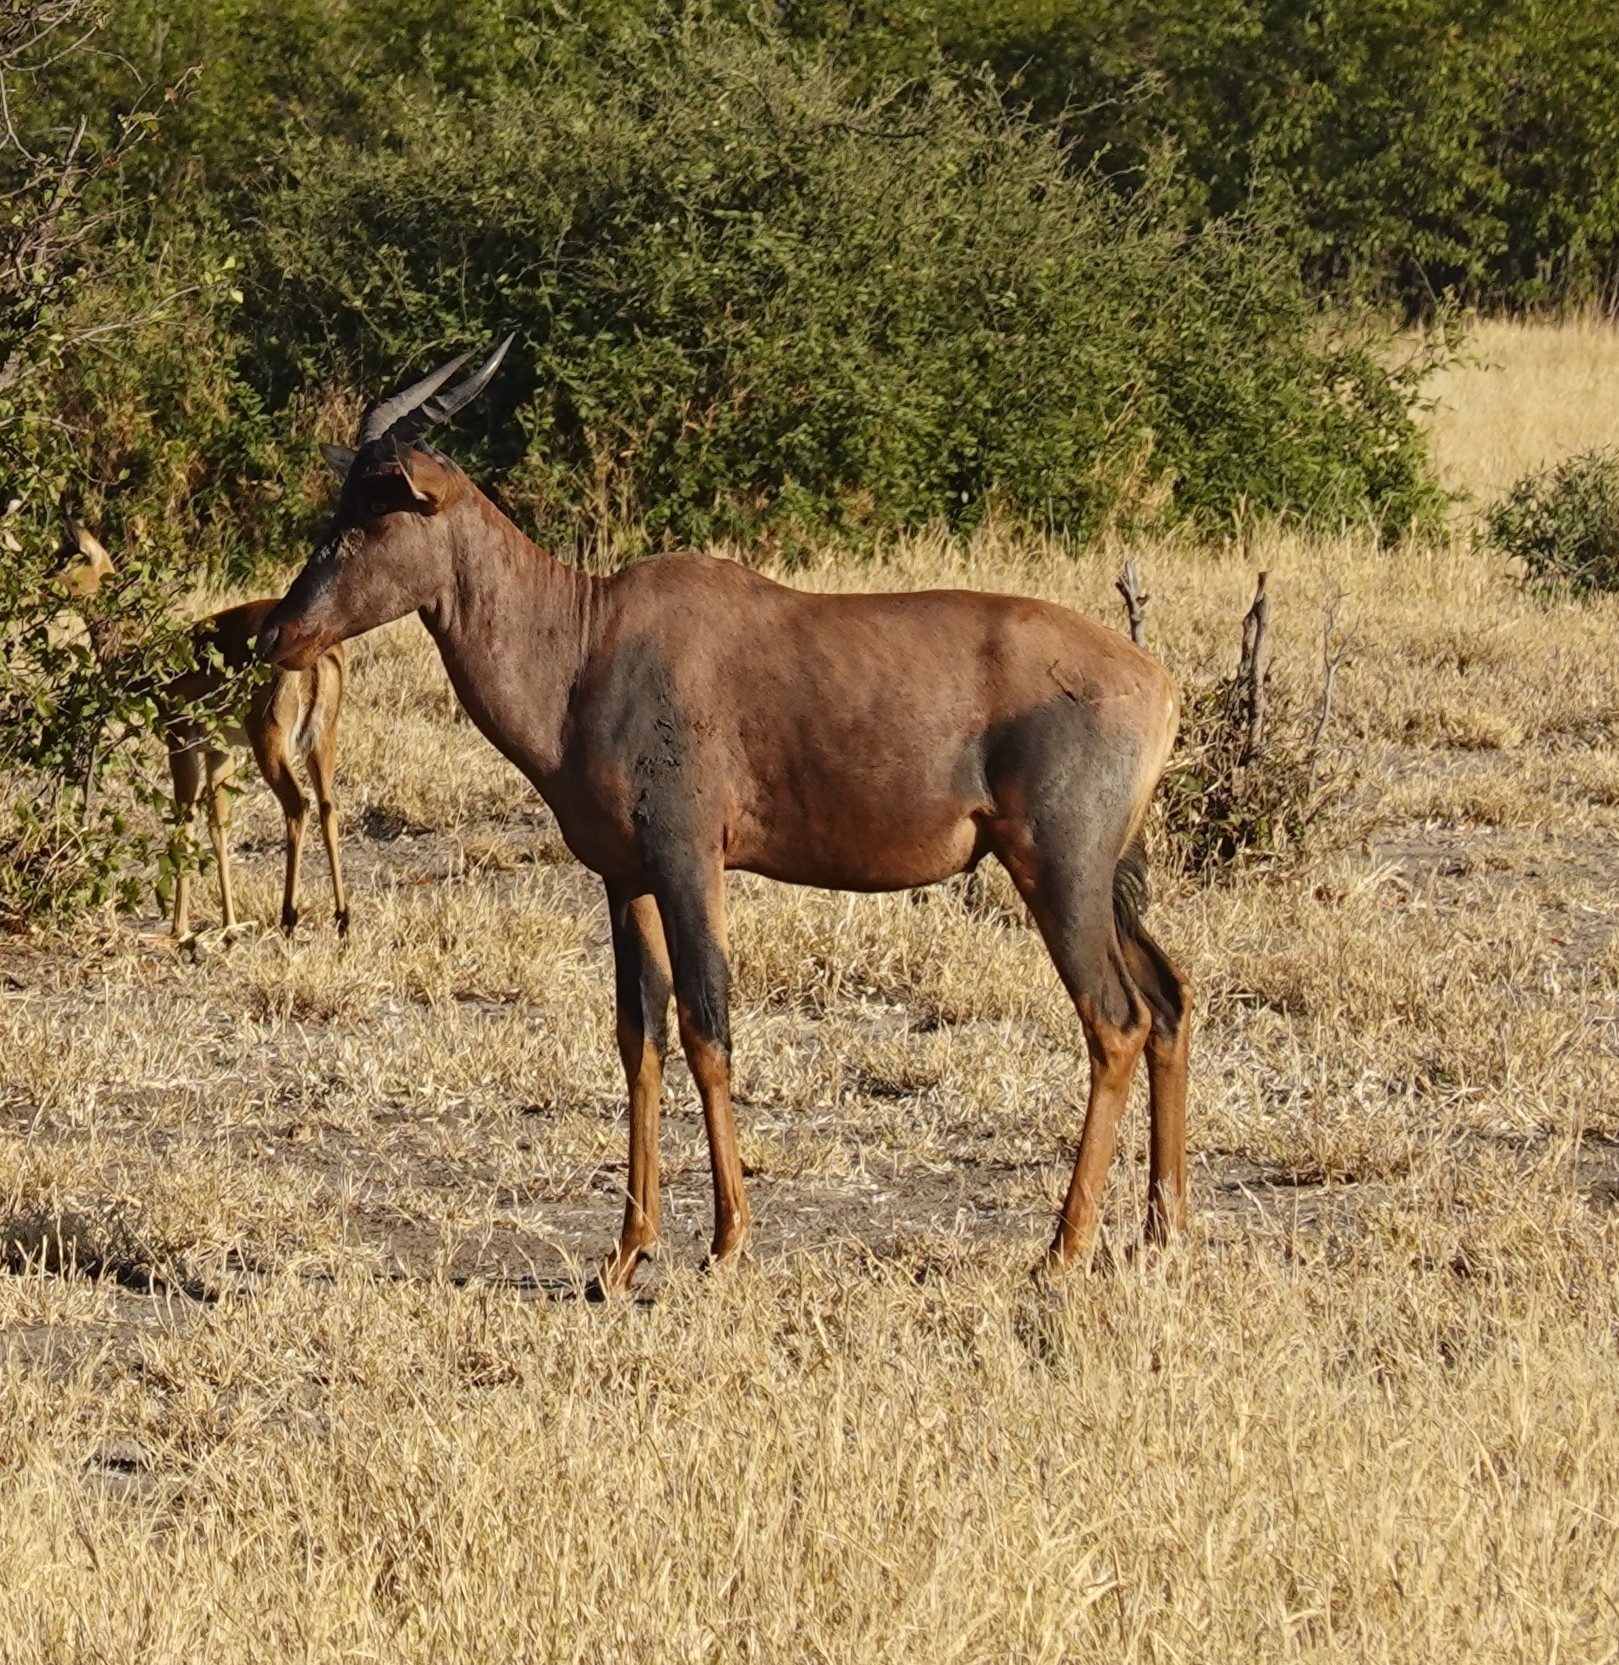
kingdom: Animalia
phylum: Chordata
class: Mammalia
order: Artiodactyla
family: Bovidae
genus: Damaliscus
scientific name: Damaliscus lunatus
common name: Common tsessebe
